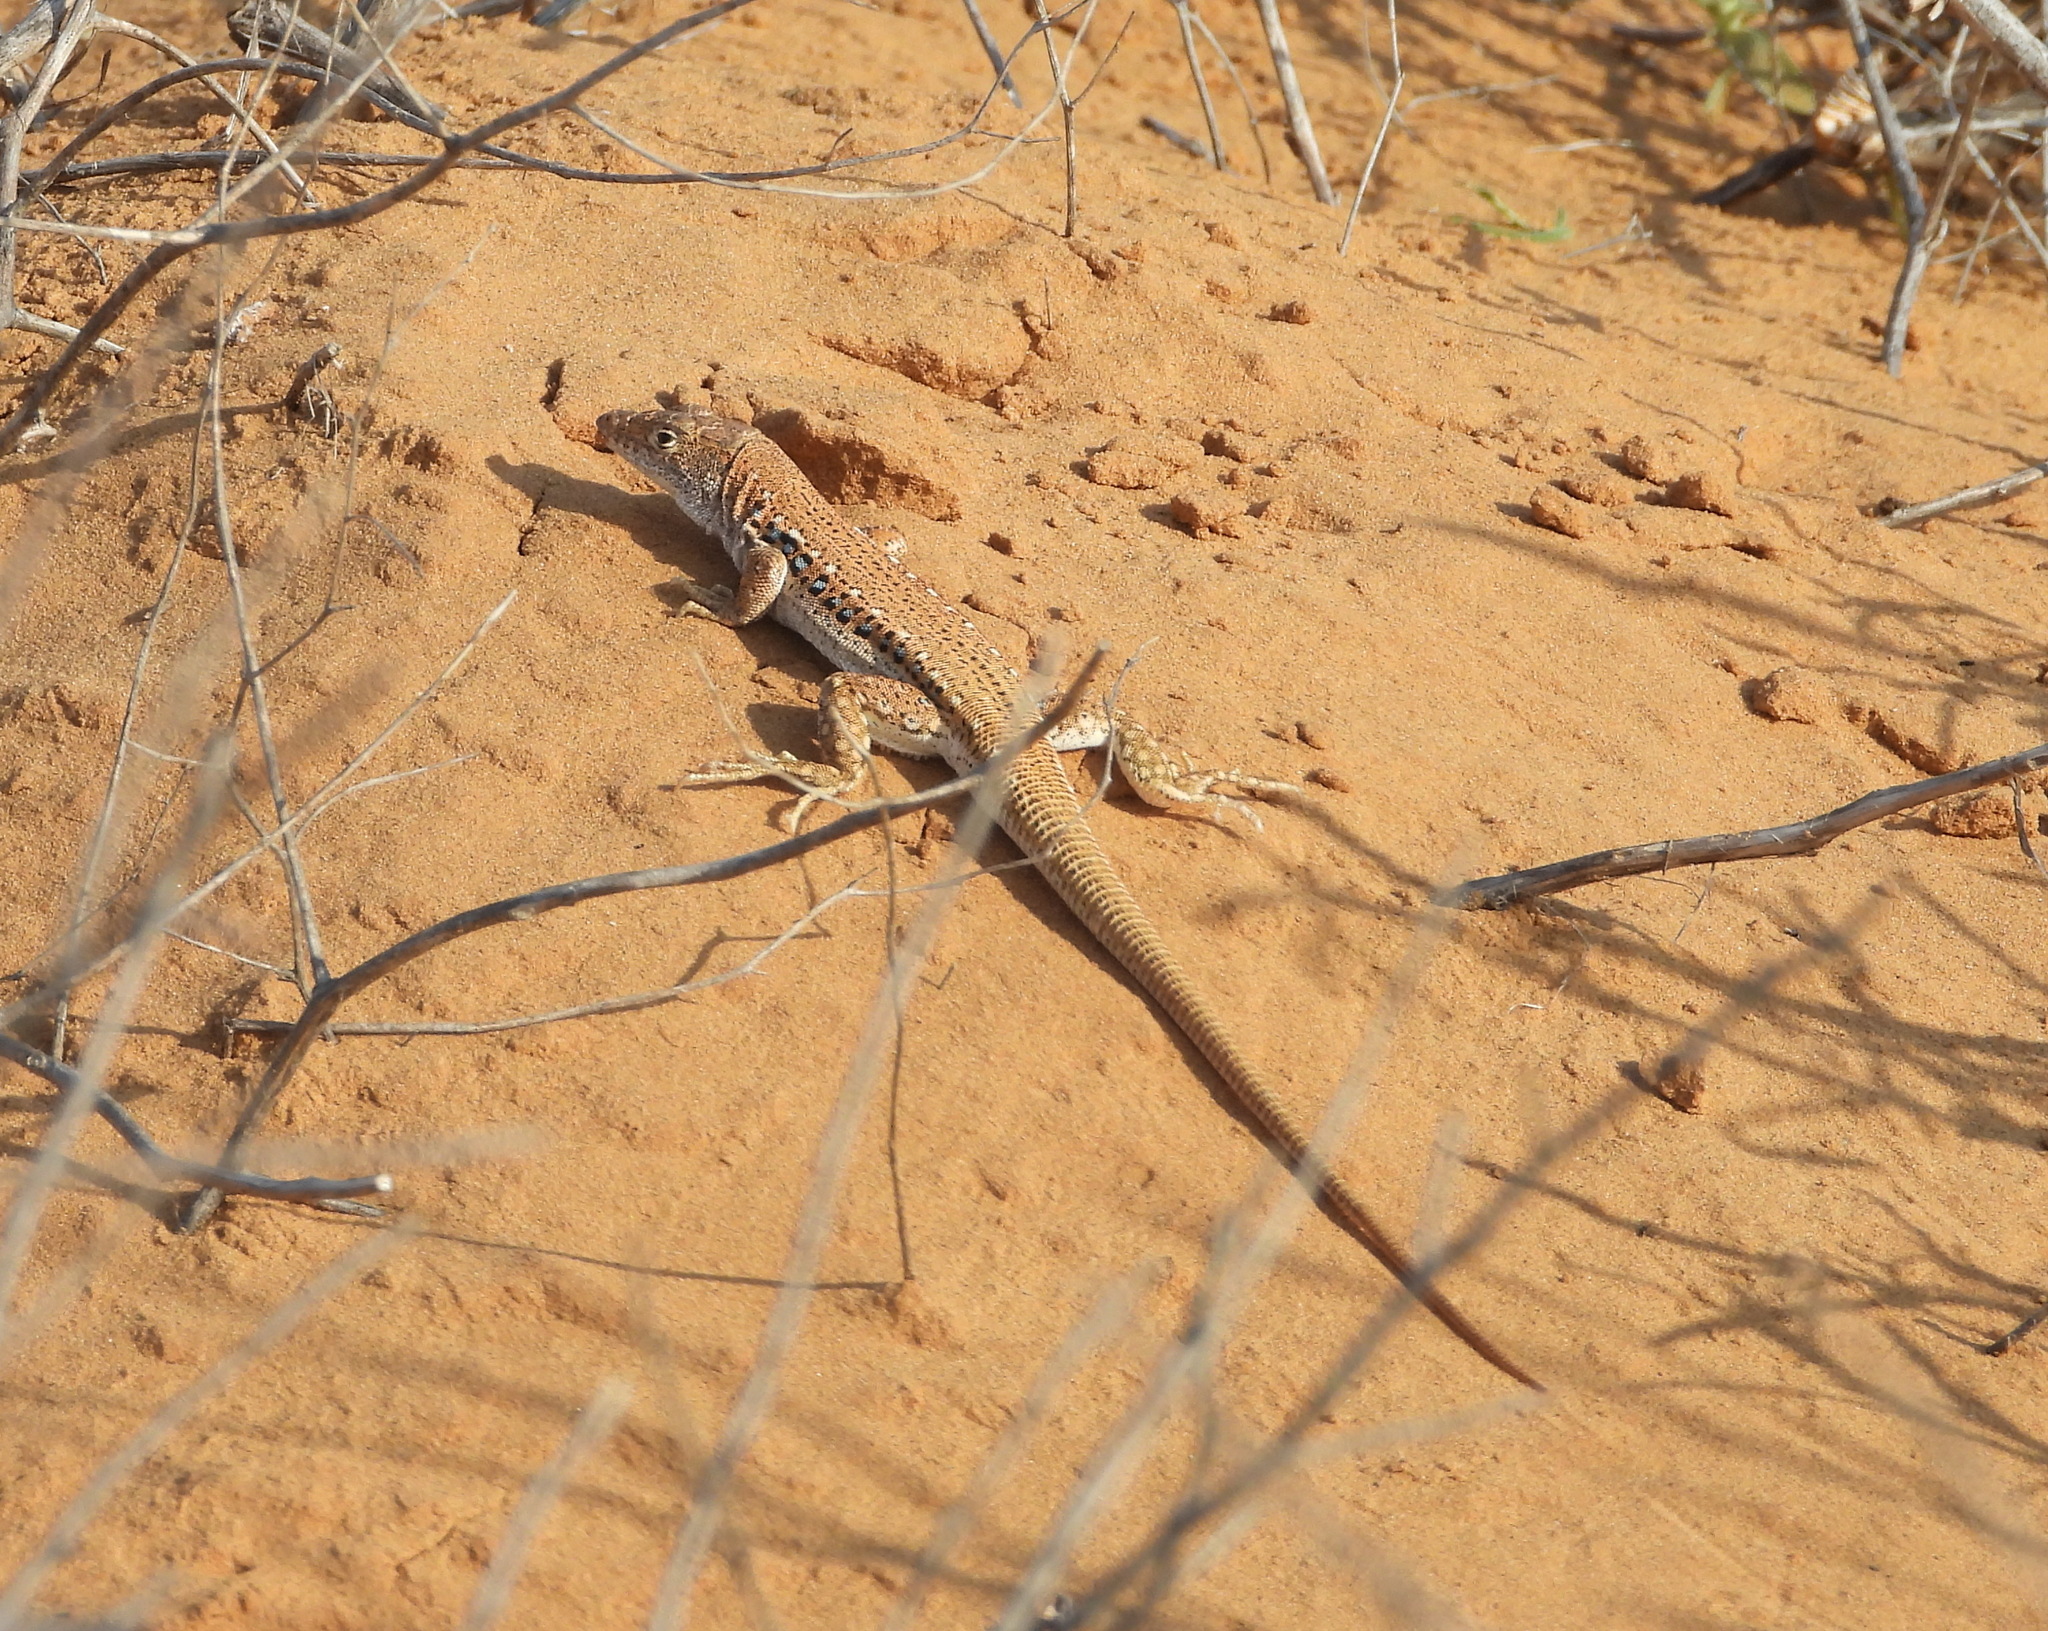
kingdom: Animalia
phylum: Chordata
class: Squamata
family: Lacertidae
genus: Eremias
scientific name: Eremias velox
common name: Central asian racerunner
